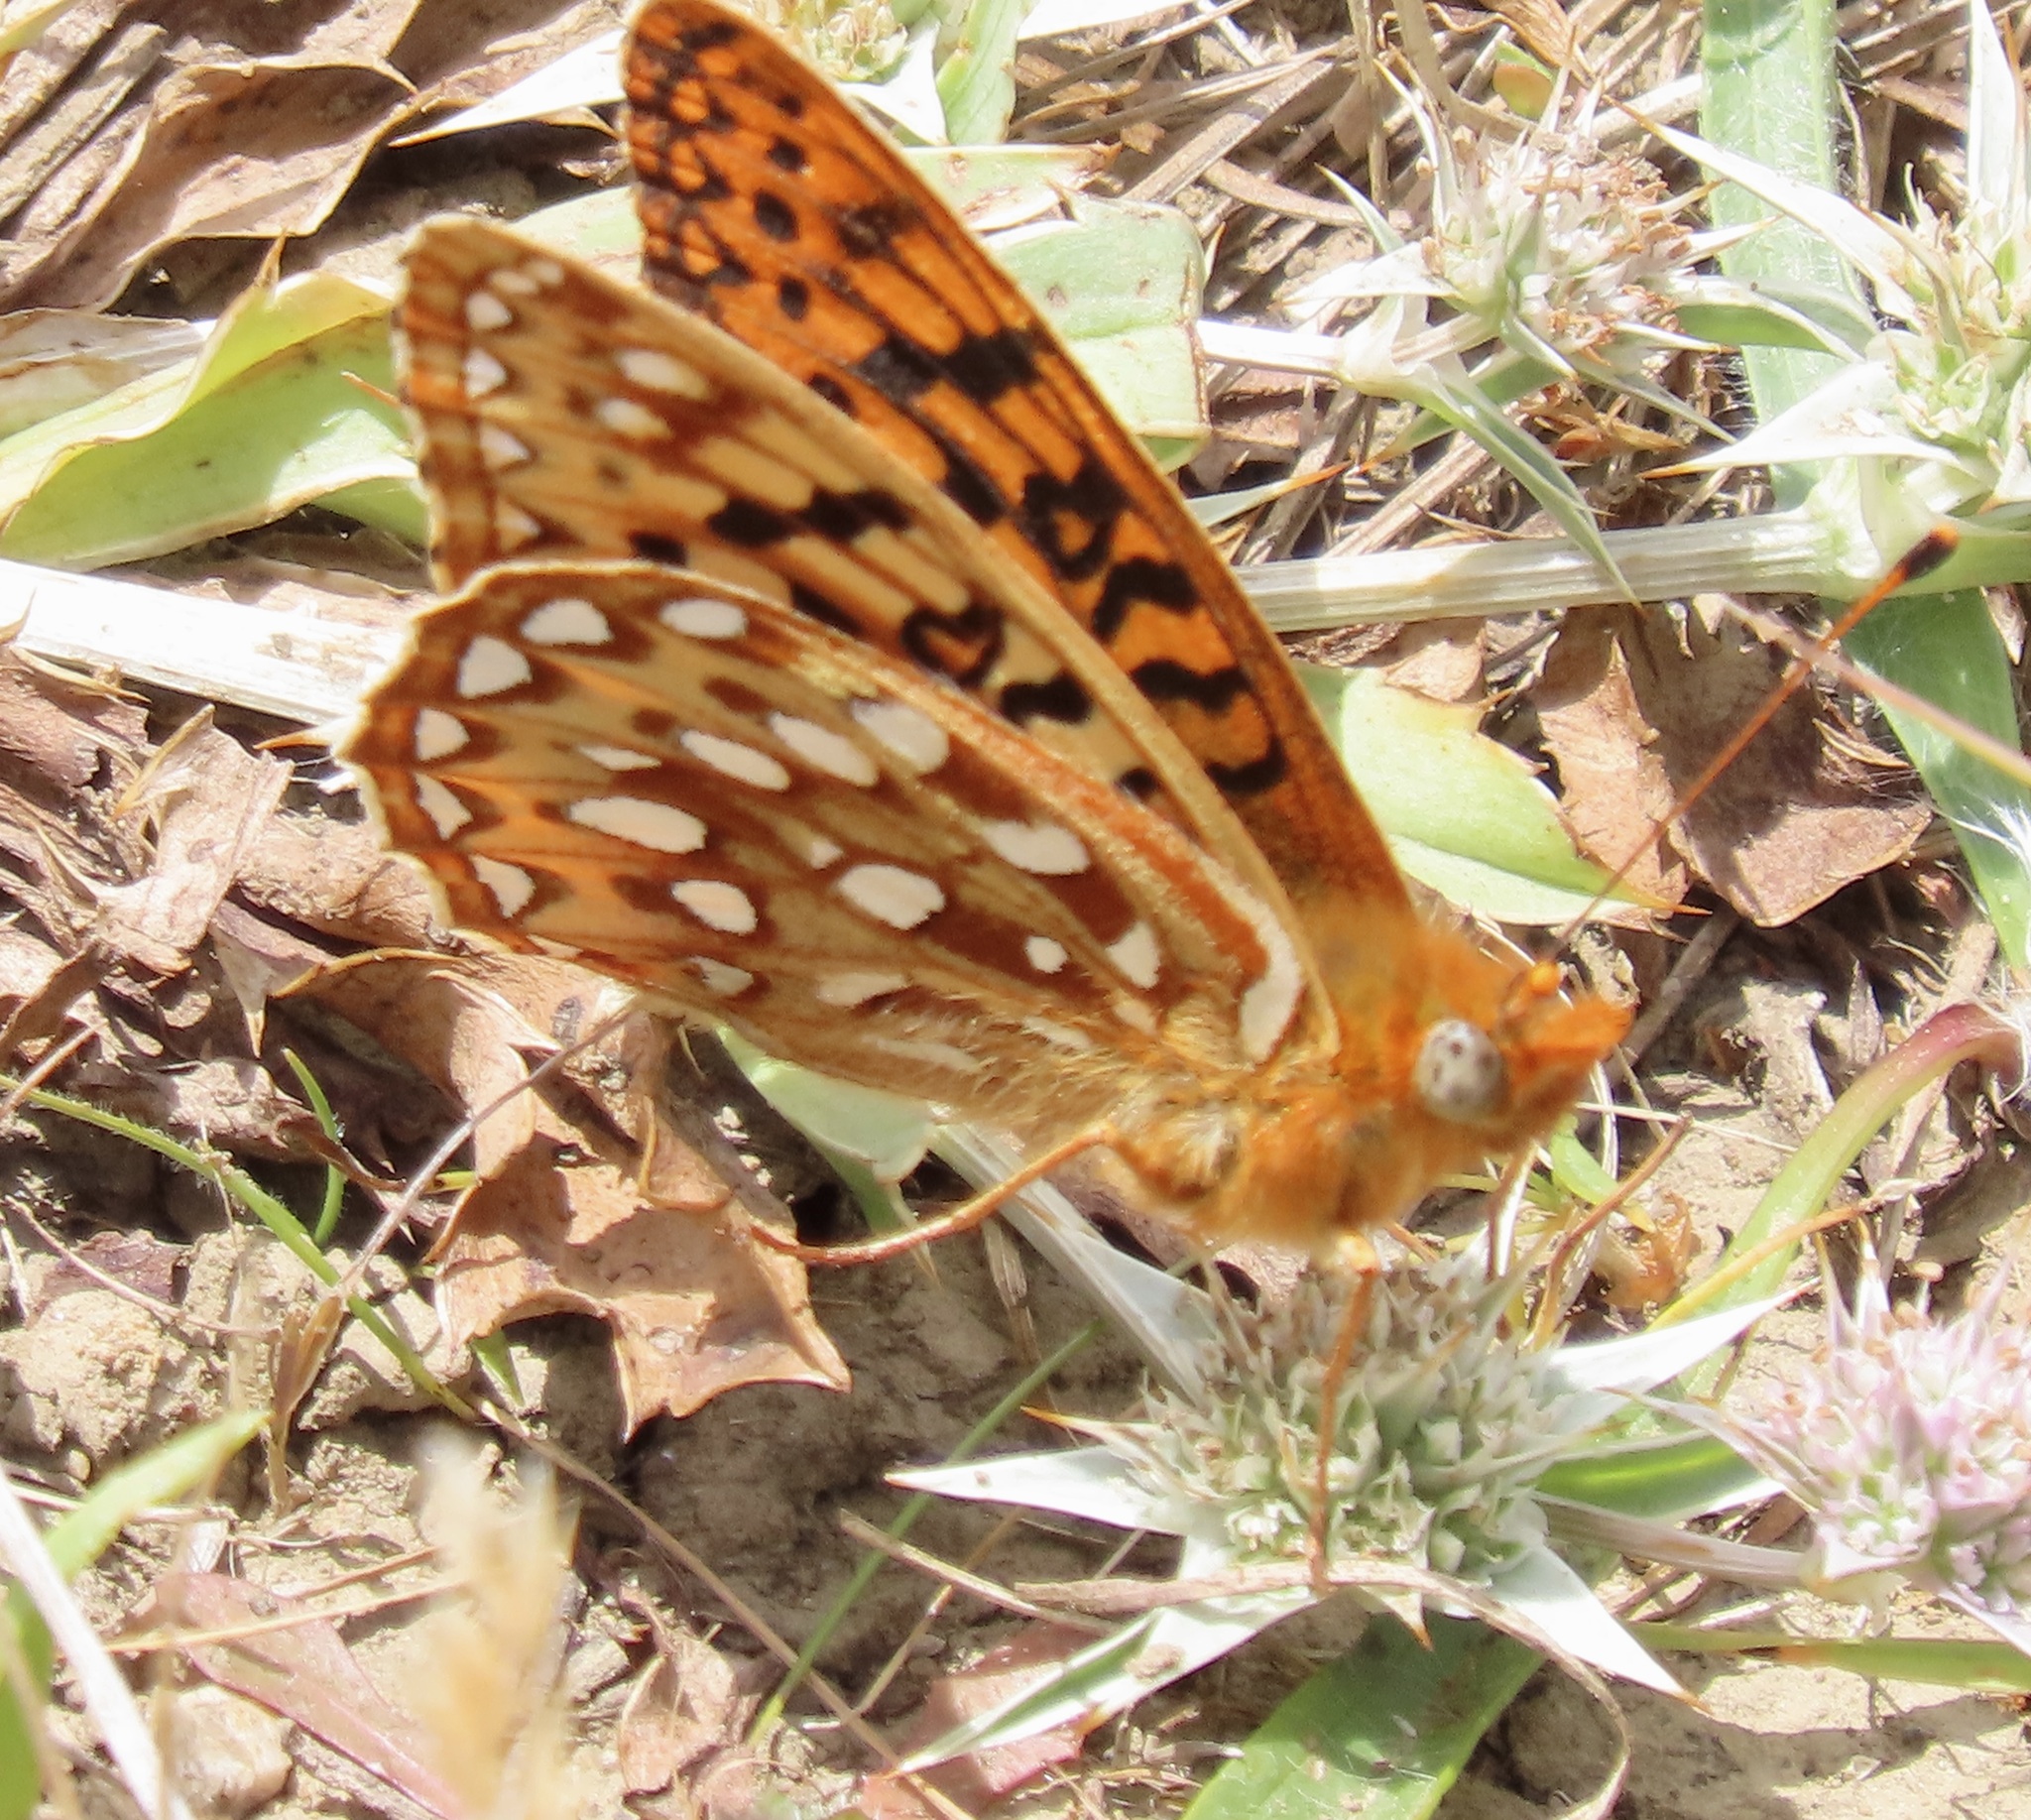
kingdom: Animalia
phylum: Arthropoda
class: Insecta
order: Lepidoptera
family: Nymphalidae
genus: Speyeria
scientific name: Speyeria zerene
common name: Zerene fritillary
